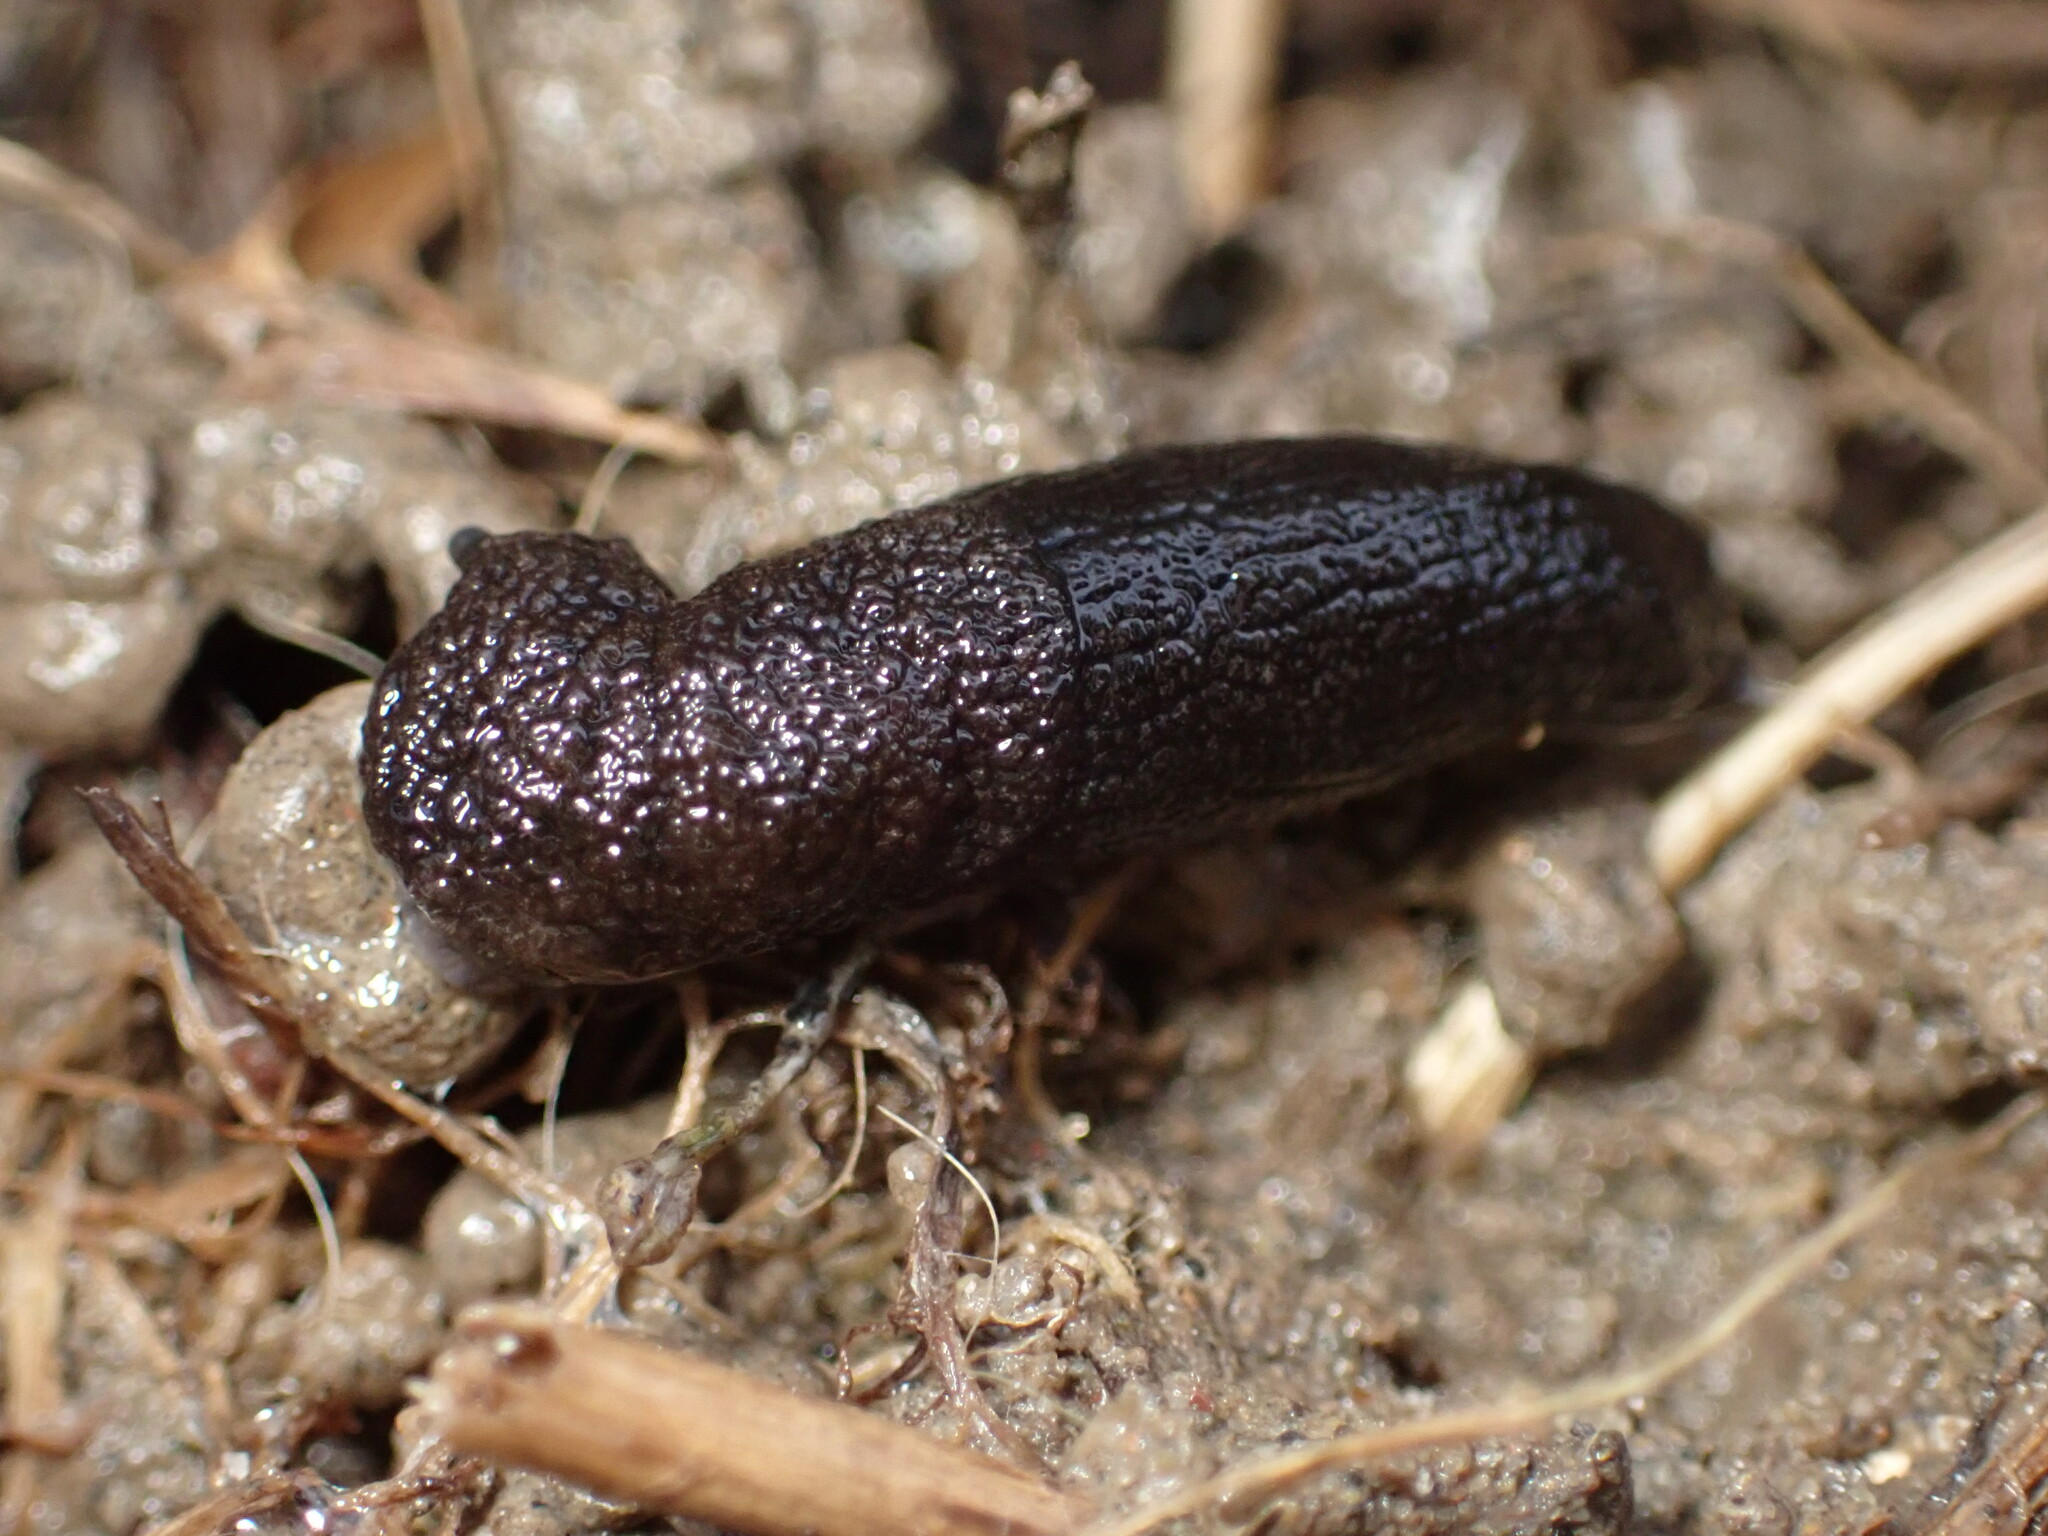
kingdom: Animalia
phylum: Mollusca
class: Gastropoda
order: Stylommatophora
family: Milacidae
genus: Milax
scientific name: Milax gagates
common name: Greenhouse slug
